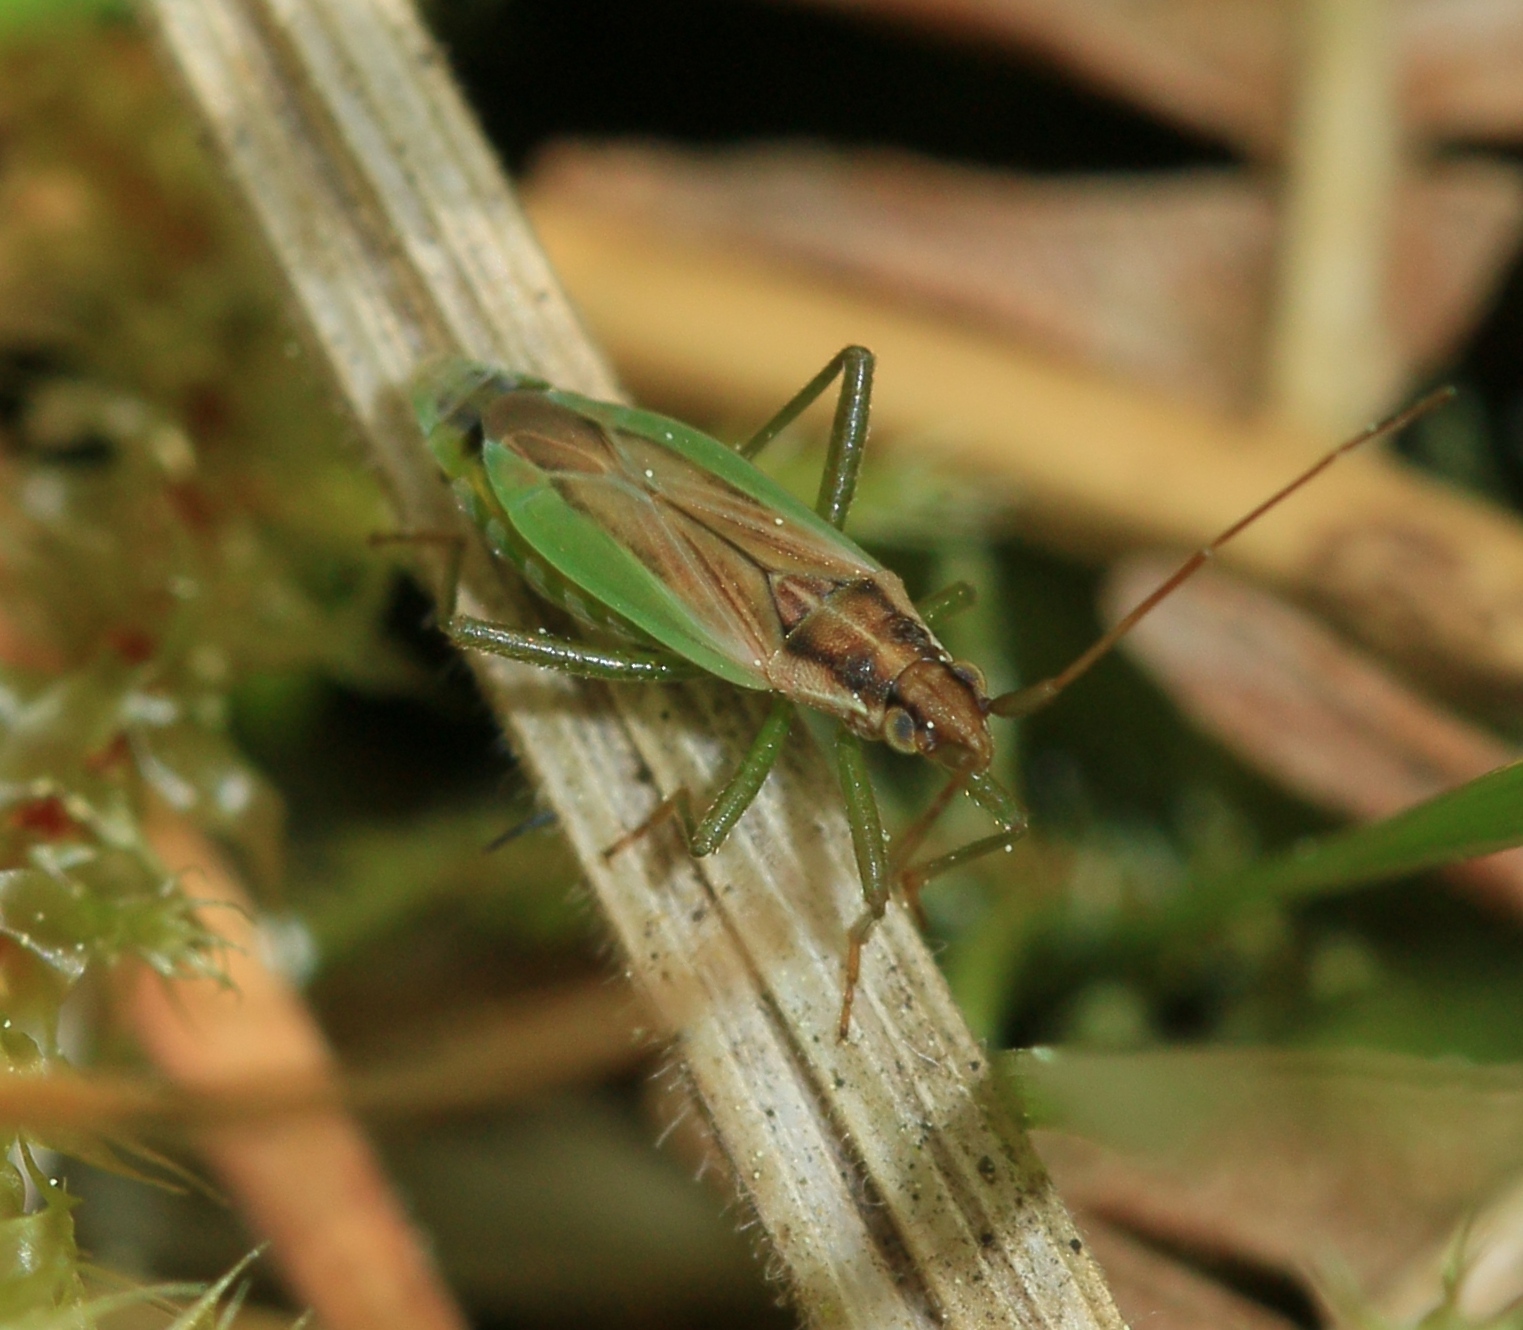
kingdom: Animalia
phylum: Arthropoda
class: Insecta
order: Hemiptera
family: Miridae
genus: Stenodema
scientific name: Stenodema holsata
